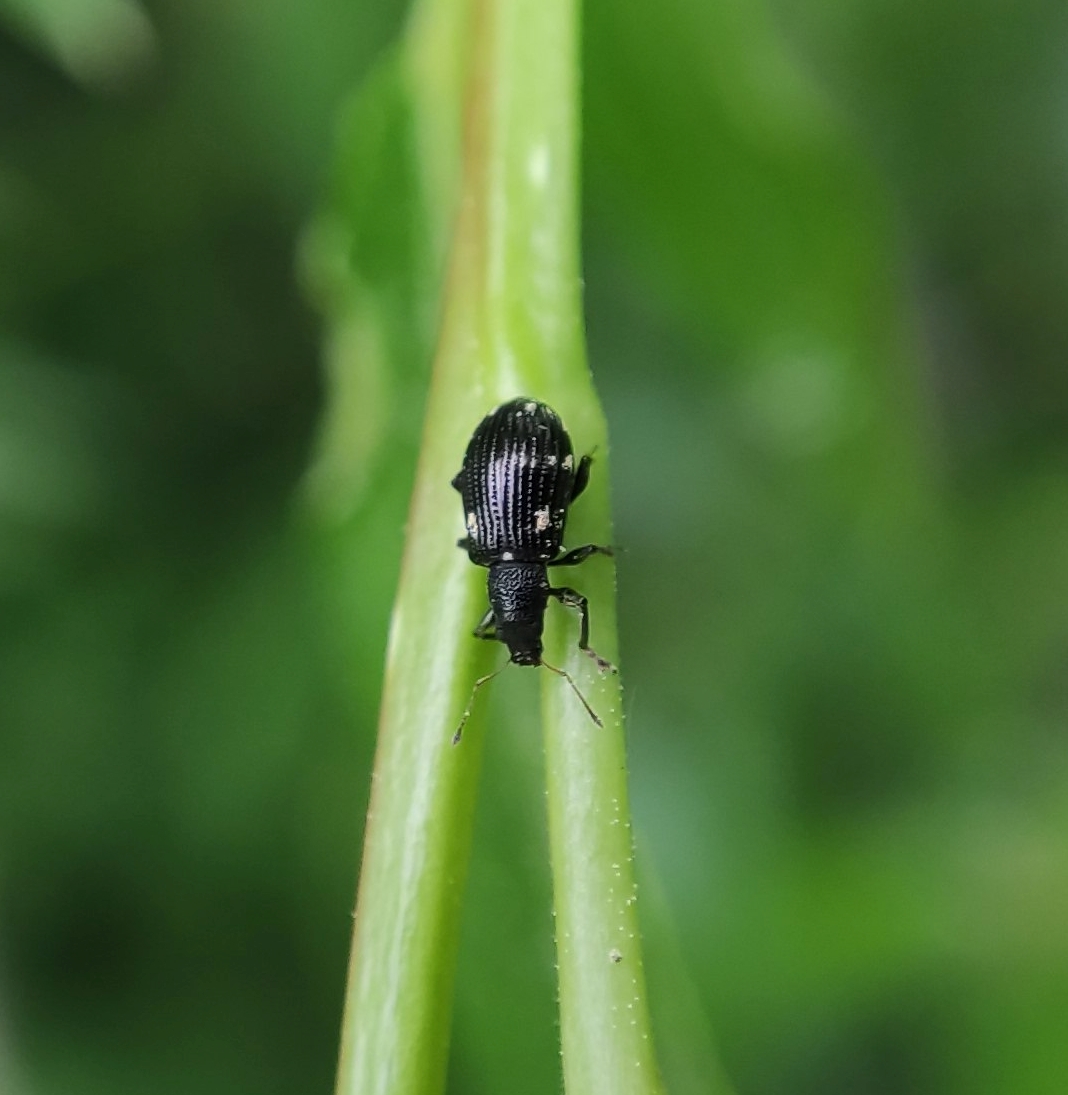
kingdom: Animalia
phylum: Arthropoda
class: Insecta
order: Coleoptera
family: Curculionidae
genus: Polydrusus
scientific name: Polydrusus picus
